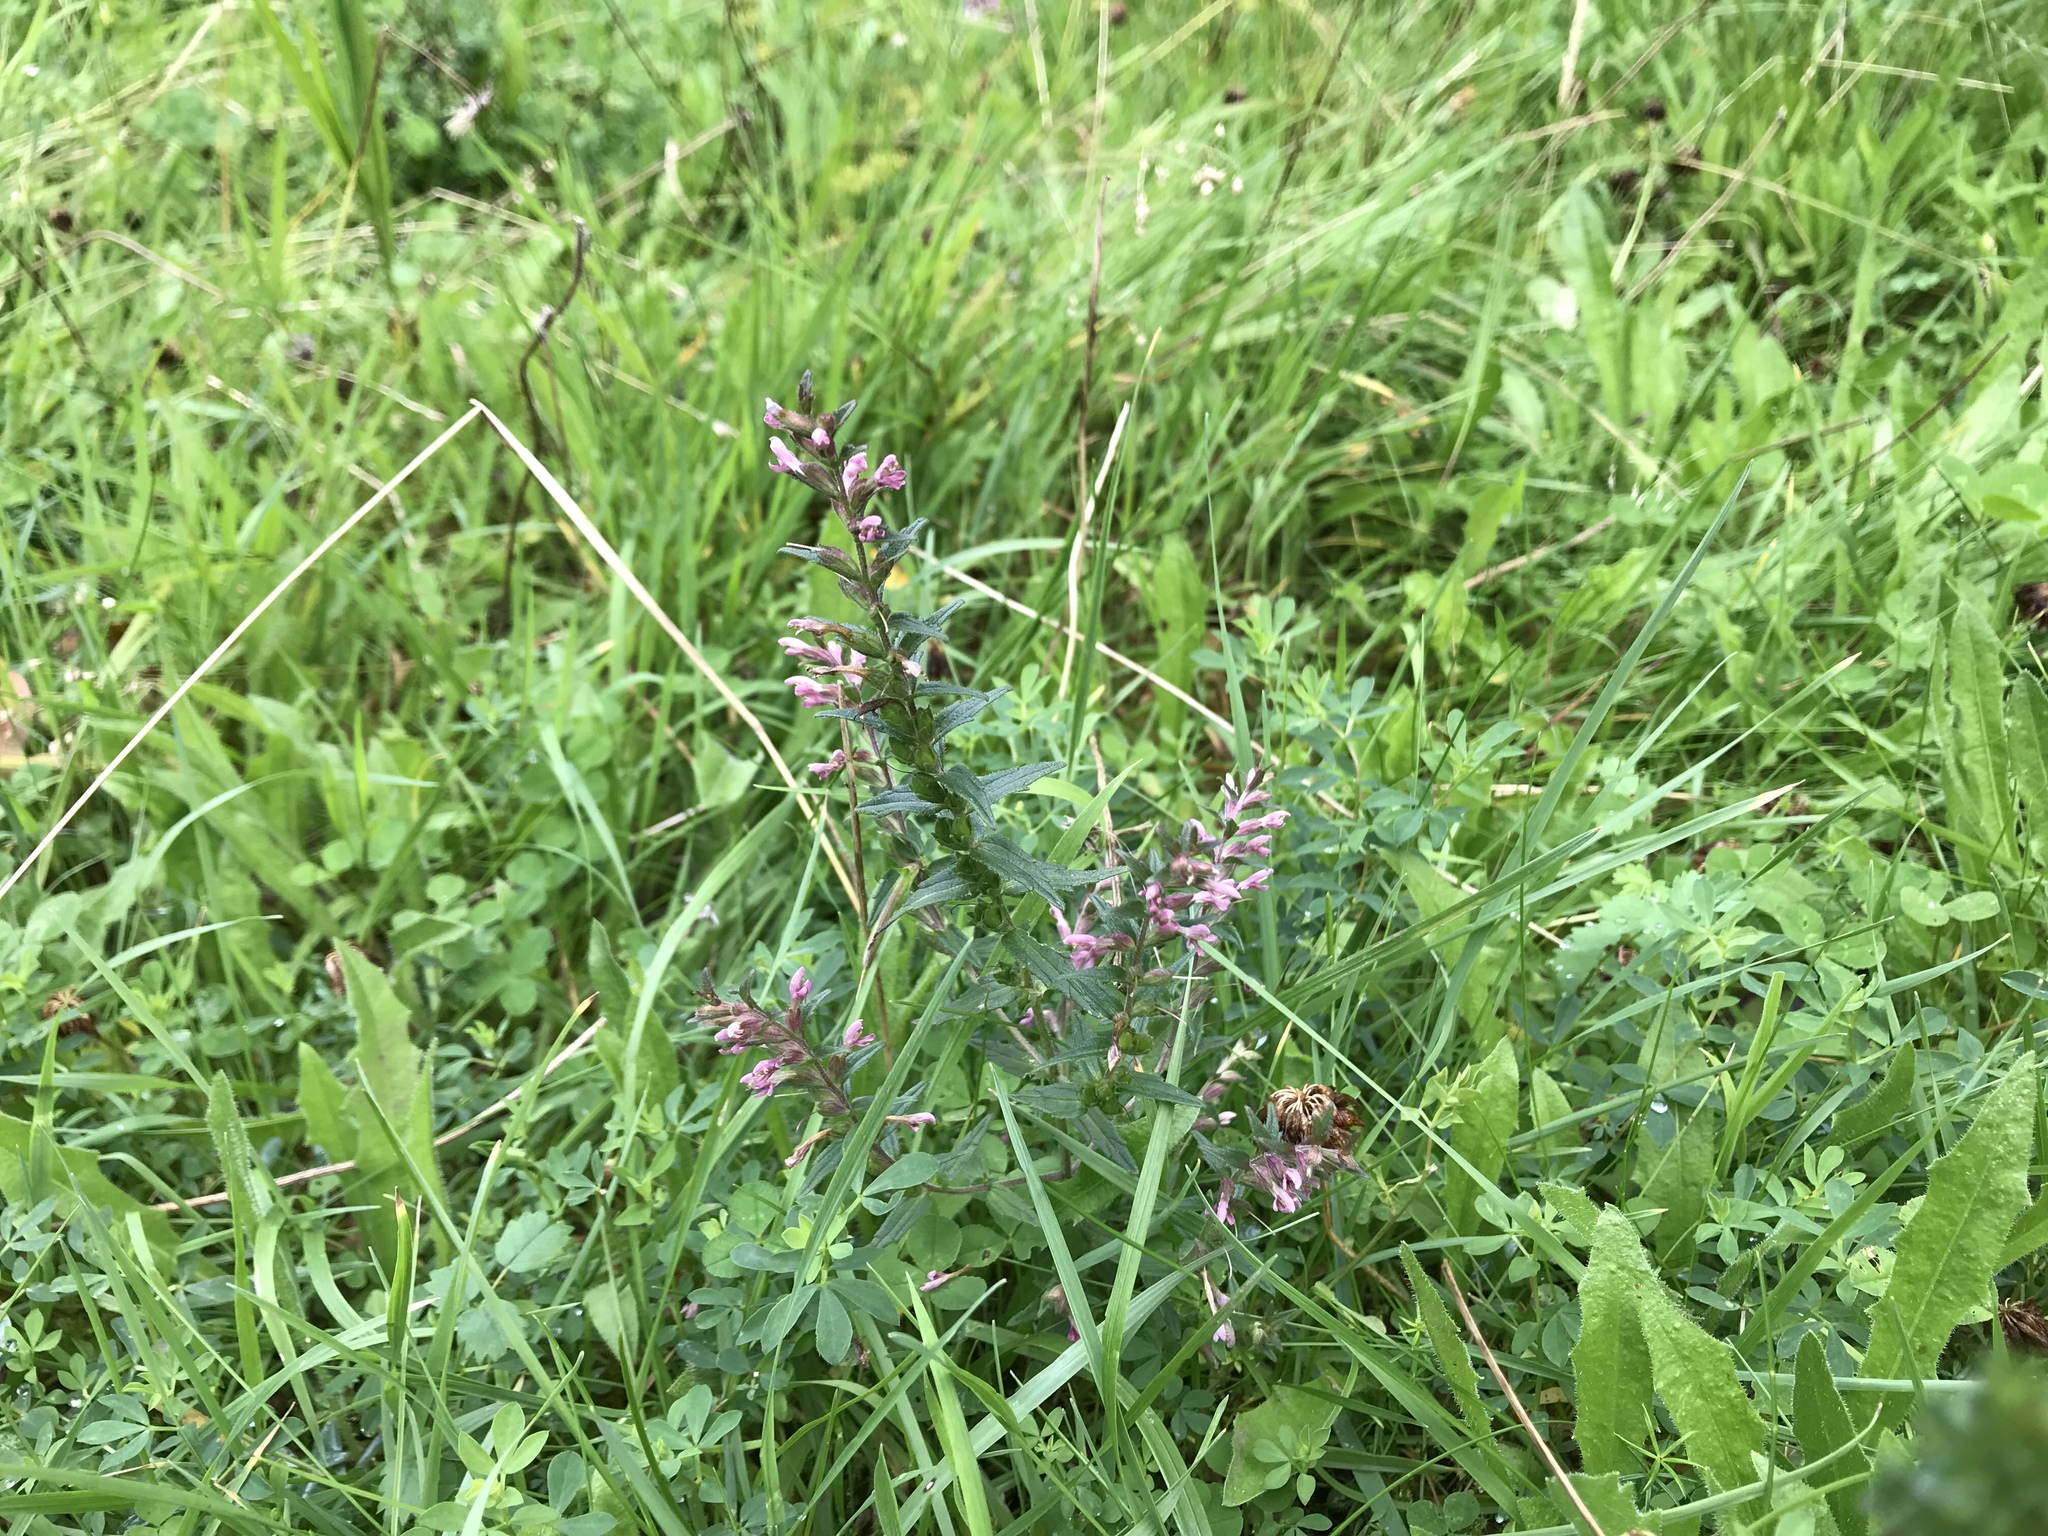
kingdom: Plantae
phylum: Tracheophyta
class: Magnoliopsida
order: Lamiales
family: Orobanchaceae
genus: Odontites
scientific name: Odontites vulgaris
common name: Broomrape
